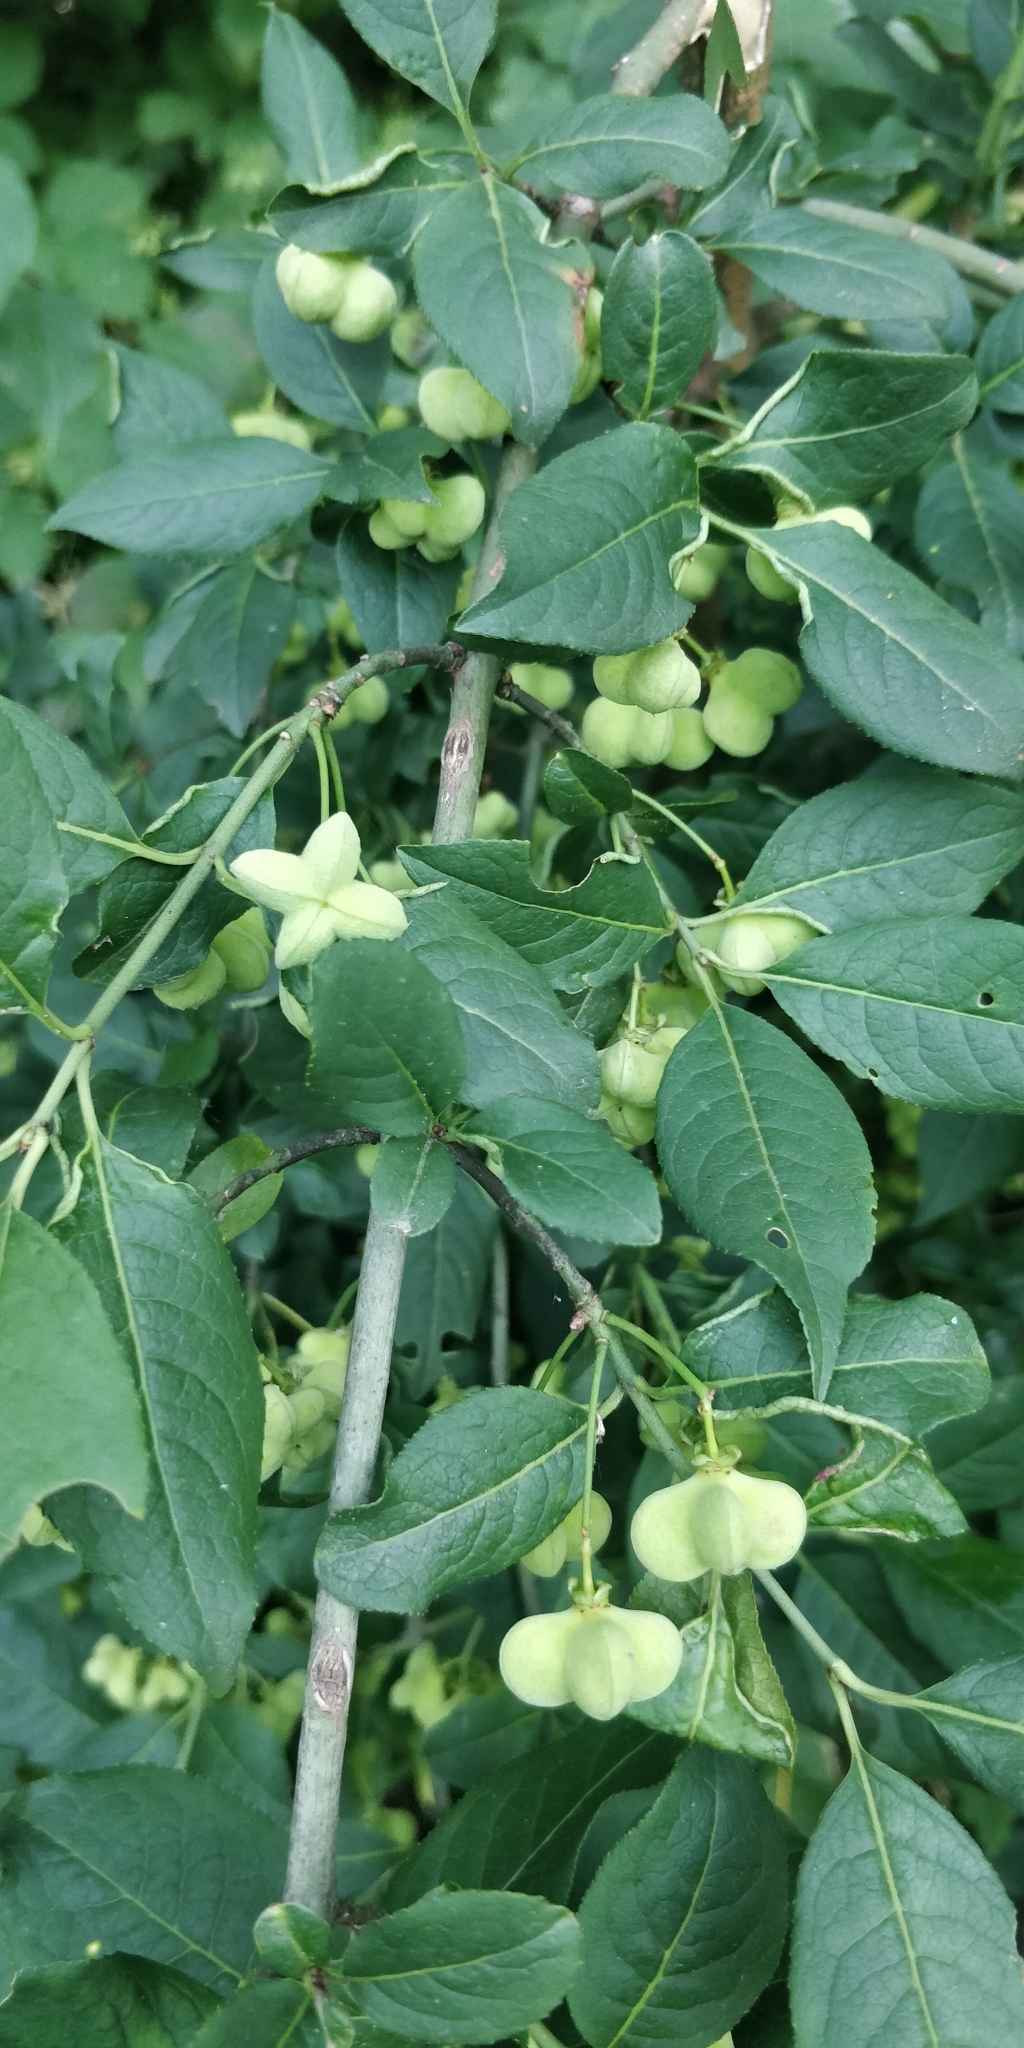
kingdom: Plantae
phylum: Tracheophyta
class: Magnoliopsida
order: Celastrales
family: Celastraceae
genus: Euonymus
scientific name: Euonymus europaeus
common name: Spindle
